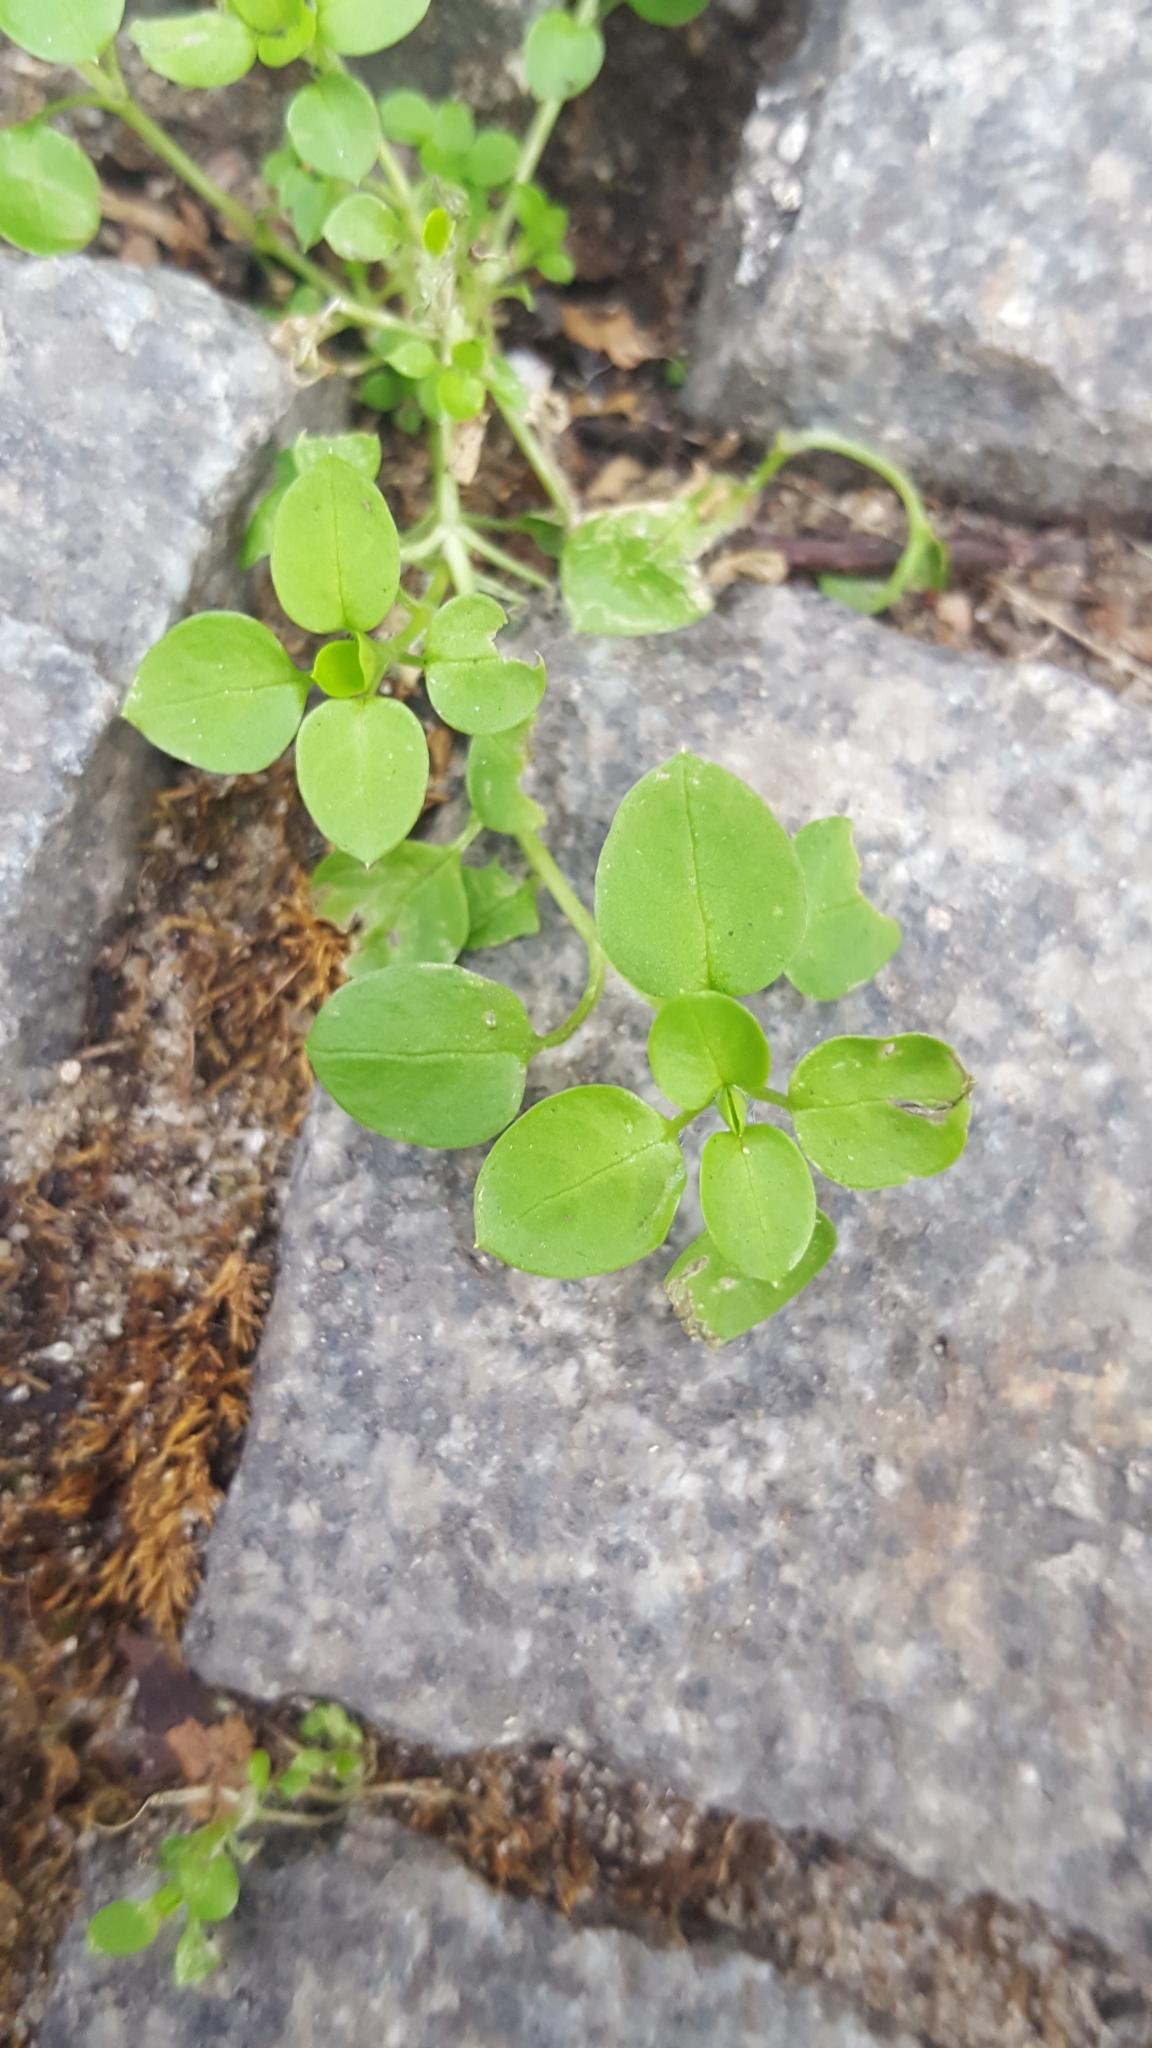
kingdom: Plantae
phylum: Tracheophyta
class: Magnoliopsida
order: Caryophyllales
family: Caryophyllaceae
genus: Stellaria
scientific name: Stellaria media
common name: Common chickweed
